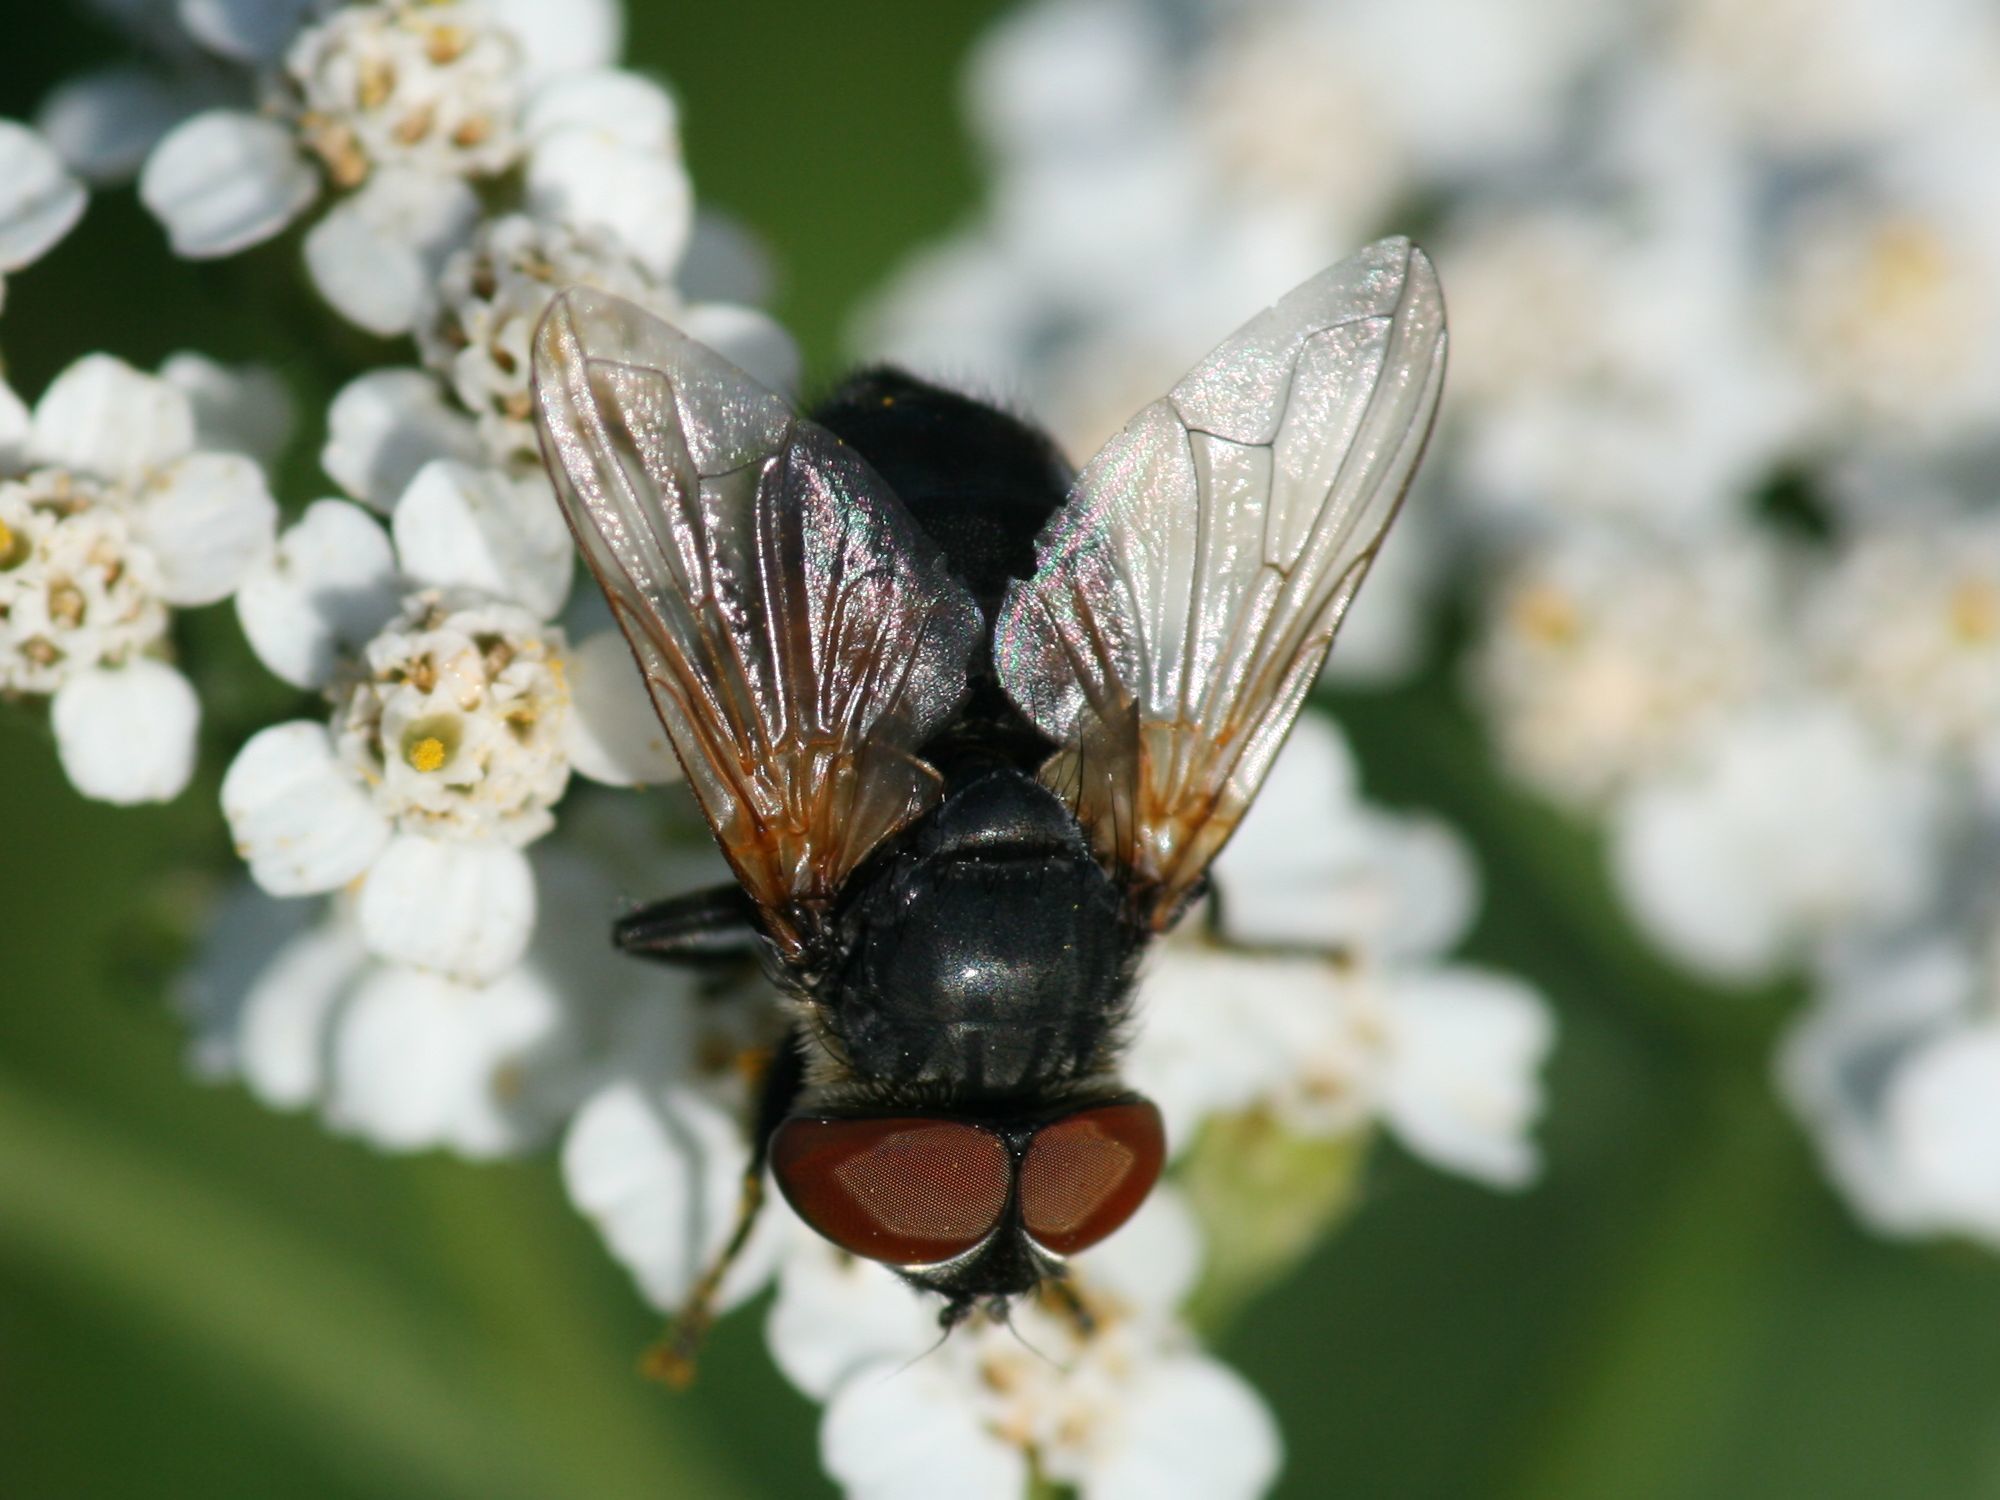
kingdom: Animalia
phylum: Arthropoda
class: Insecta
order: Diptera
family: Tachinidae
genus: Phasia
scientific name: Phasia aurigera
